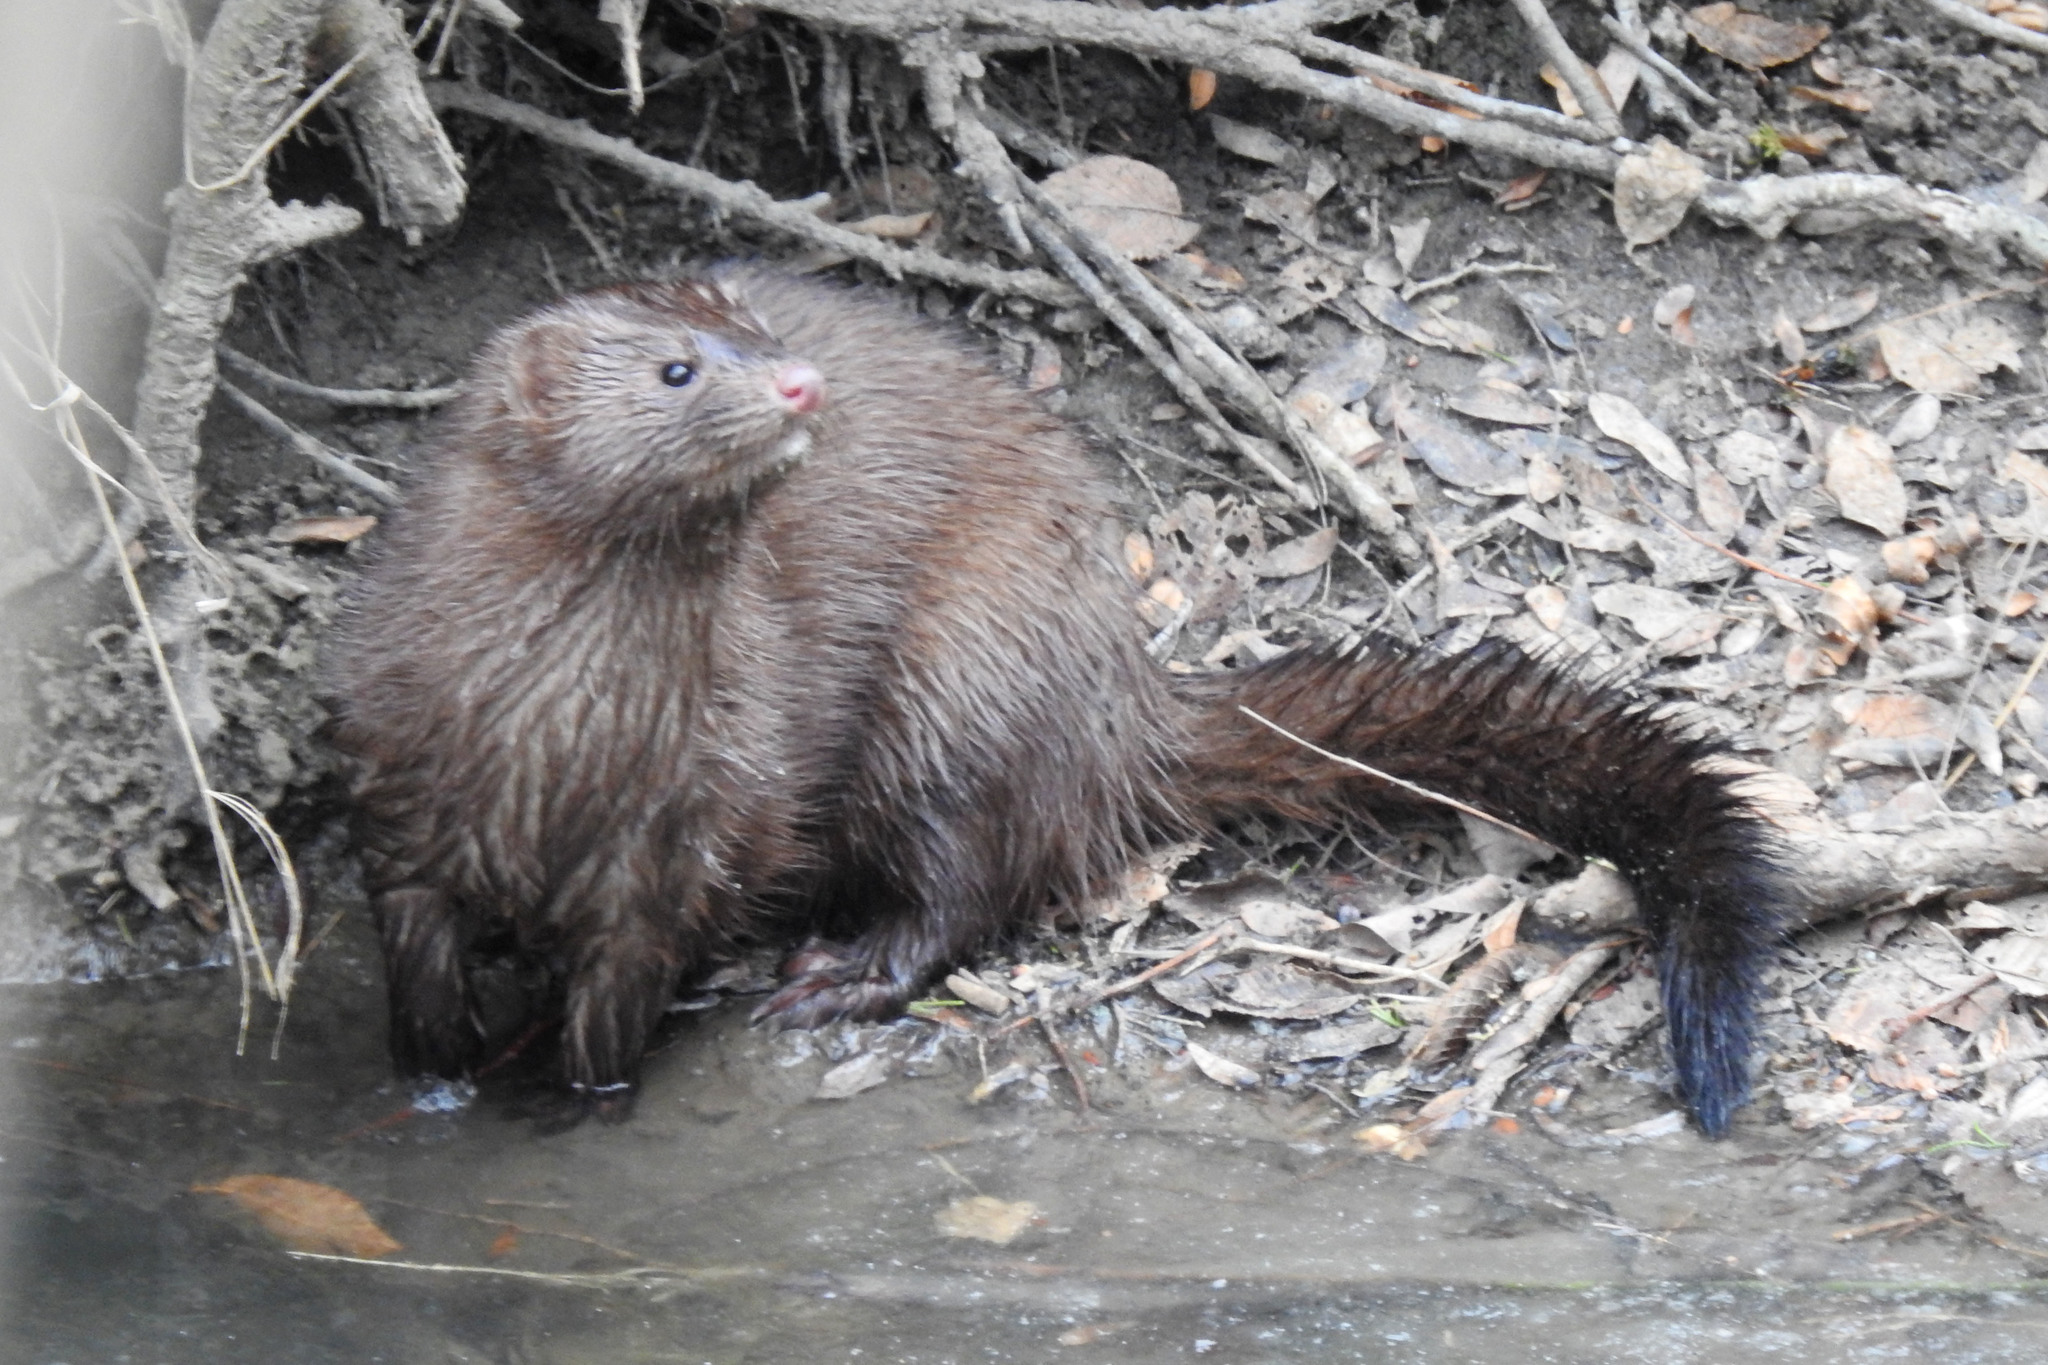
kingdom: Animalia
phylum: Chordata
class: Mammalia
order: Carnivora
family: Mustelidae
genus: Mustela
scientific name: Mustela
